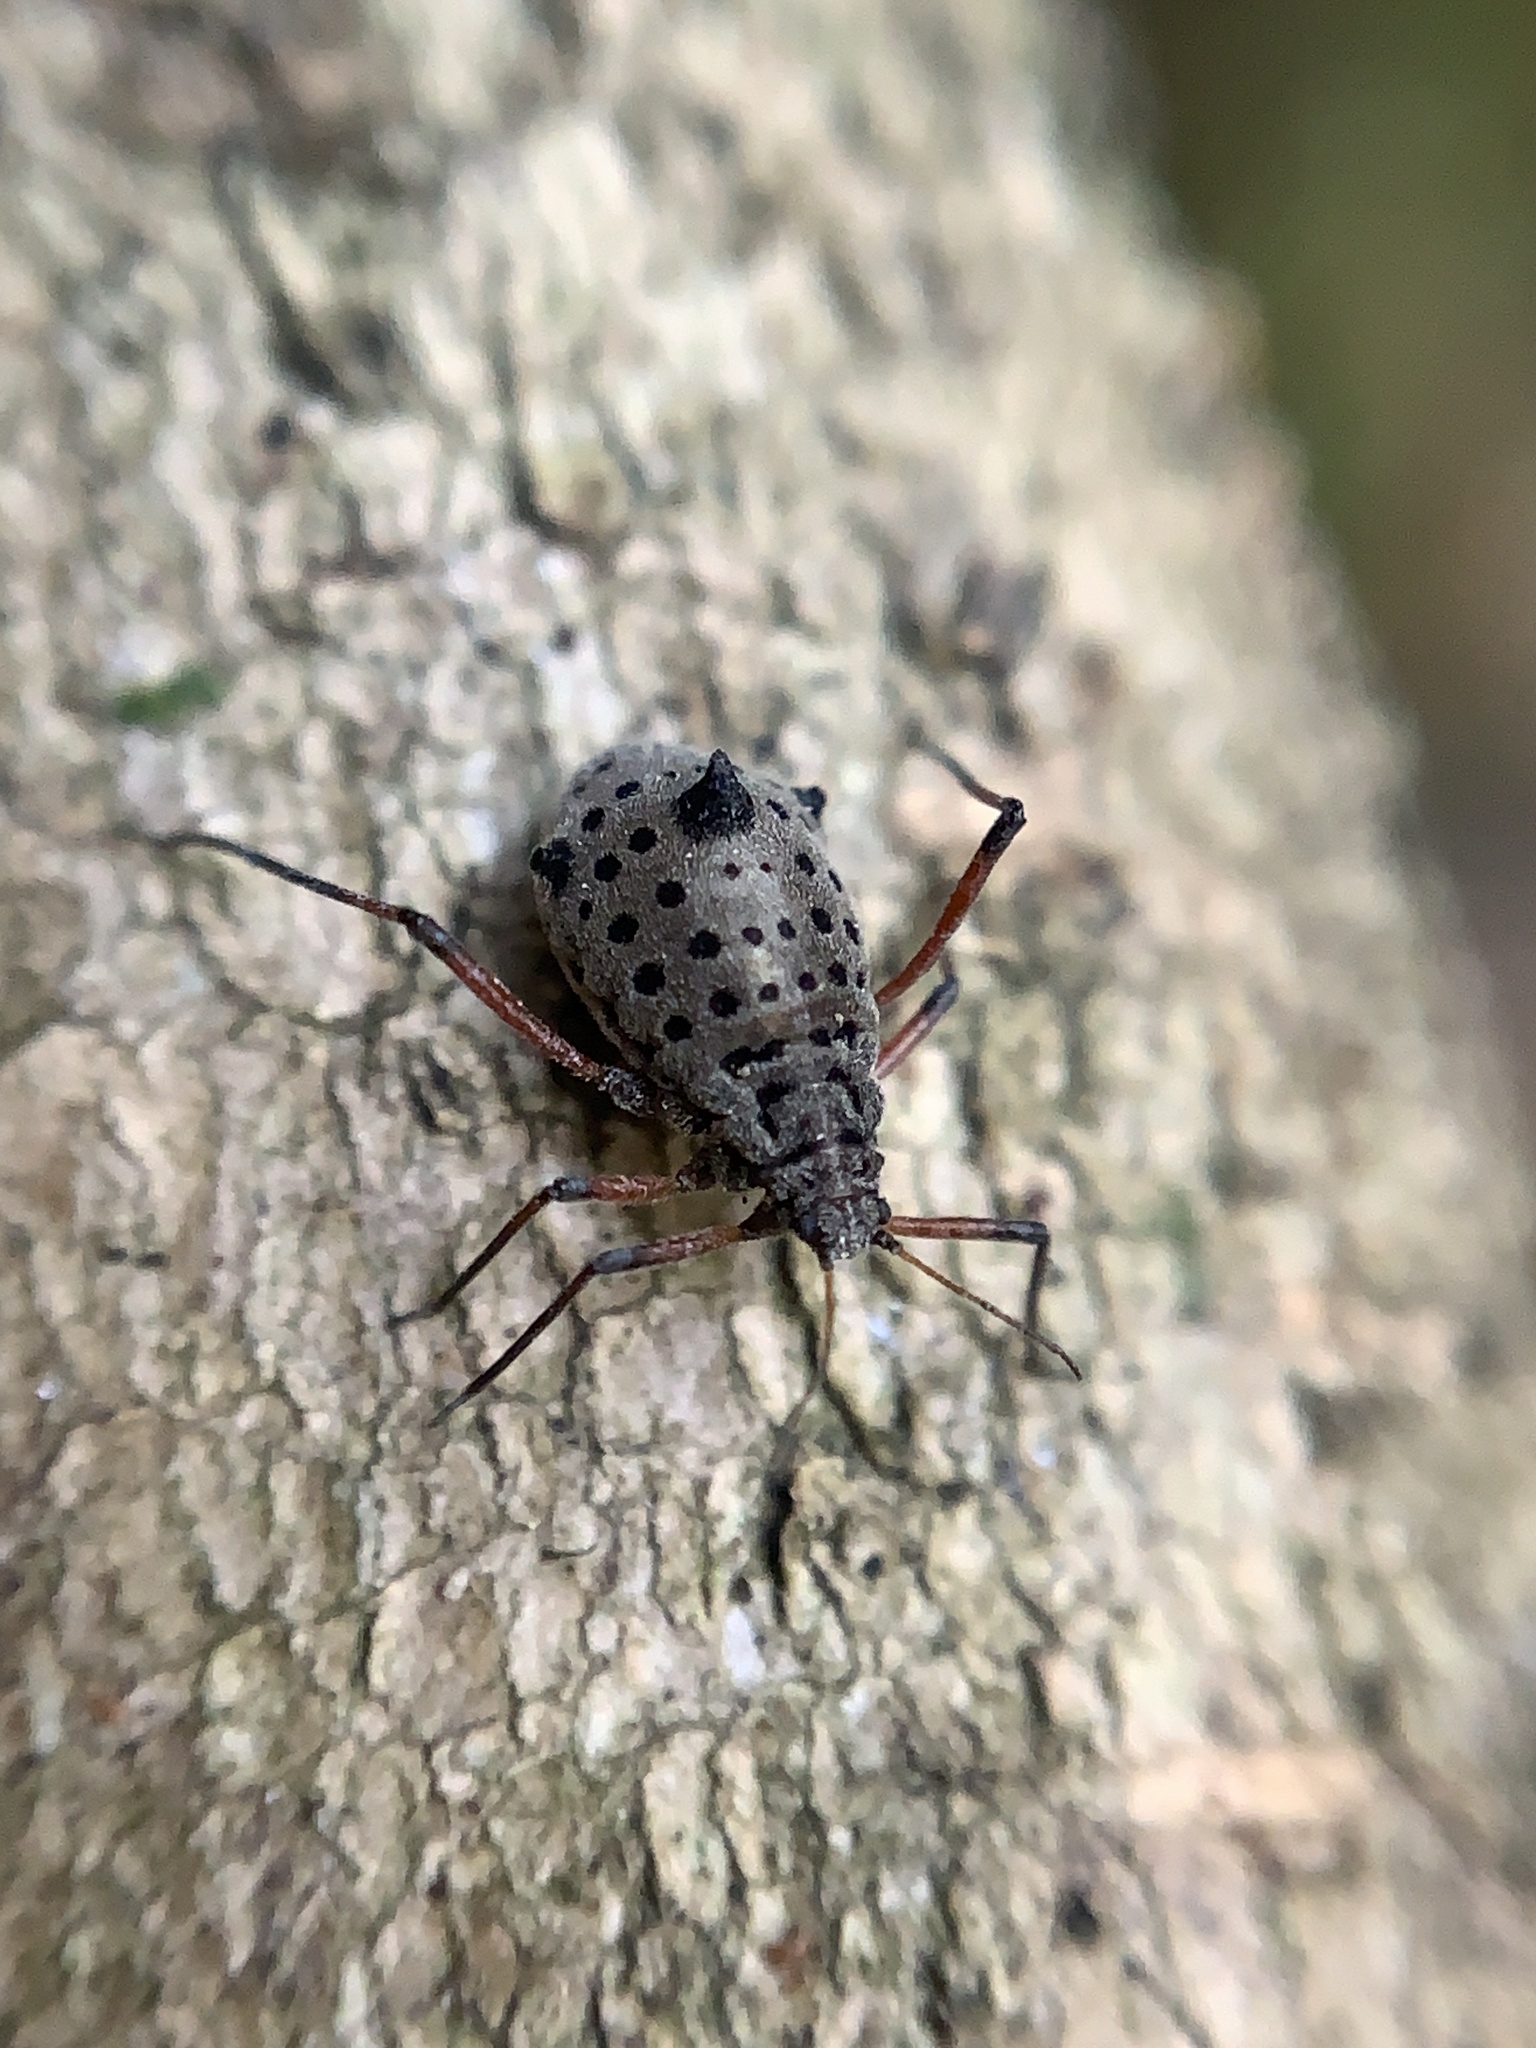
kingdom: Animalia
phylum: Arthropoda
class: Insecta
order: Hemiptera
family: Aphididae
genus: Tuberolachnus
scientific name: Tuberolachnus salignus
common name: Giant willow aphid
